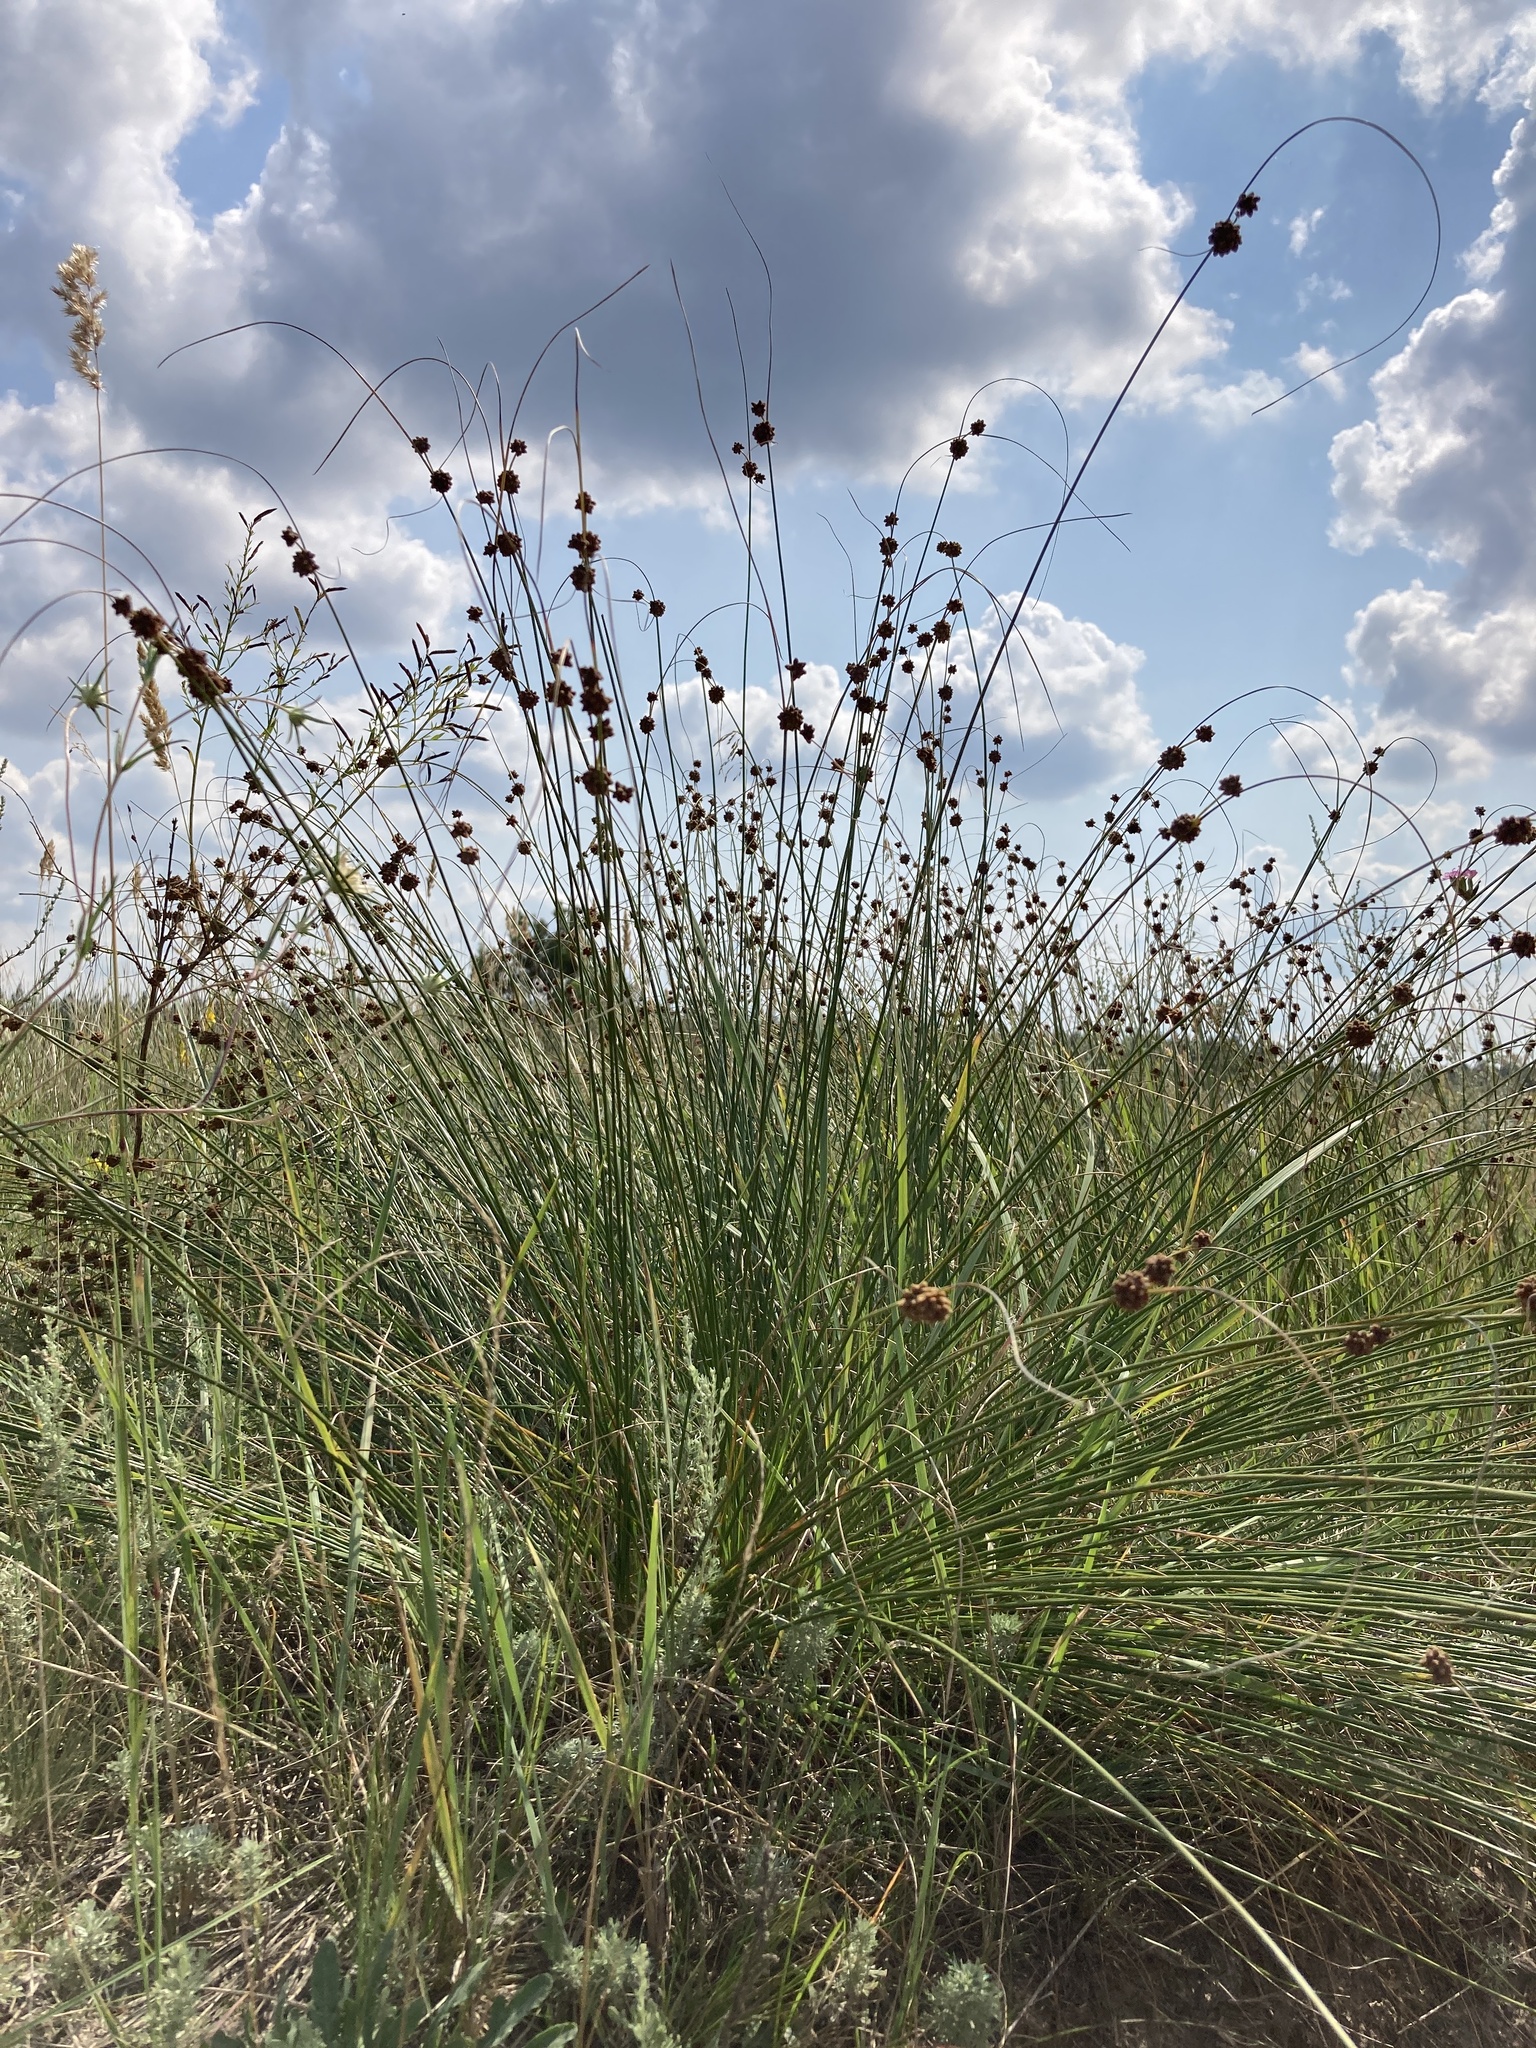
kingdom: Plantae
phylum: Tracheophyta
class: Liliopsida
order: Poales
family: Cyperaceae
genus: Scirpoides
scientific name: Scirpoides holoschoenus
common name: Round-headed club-rush
